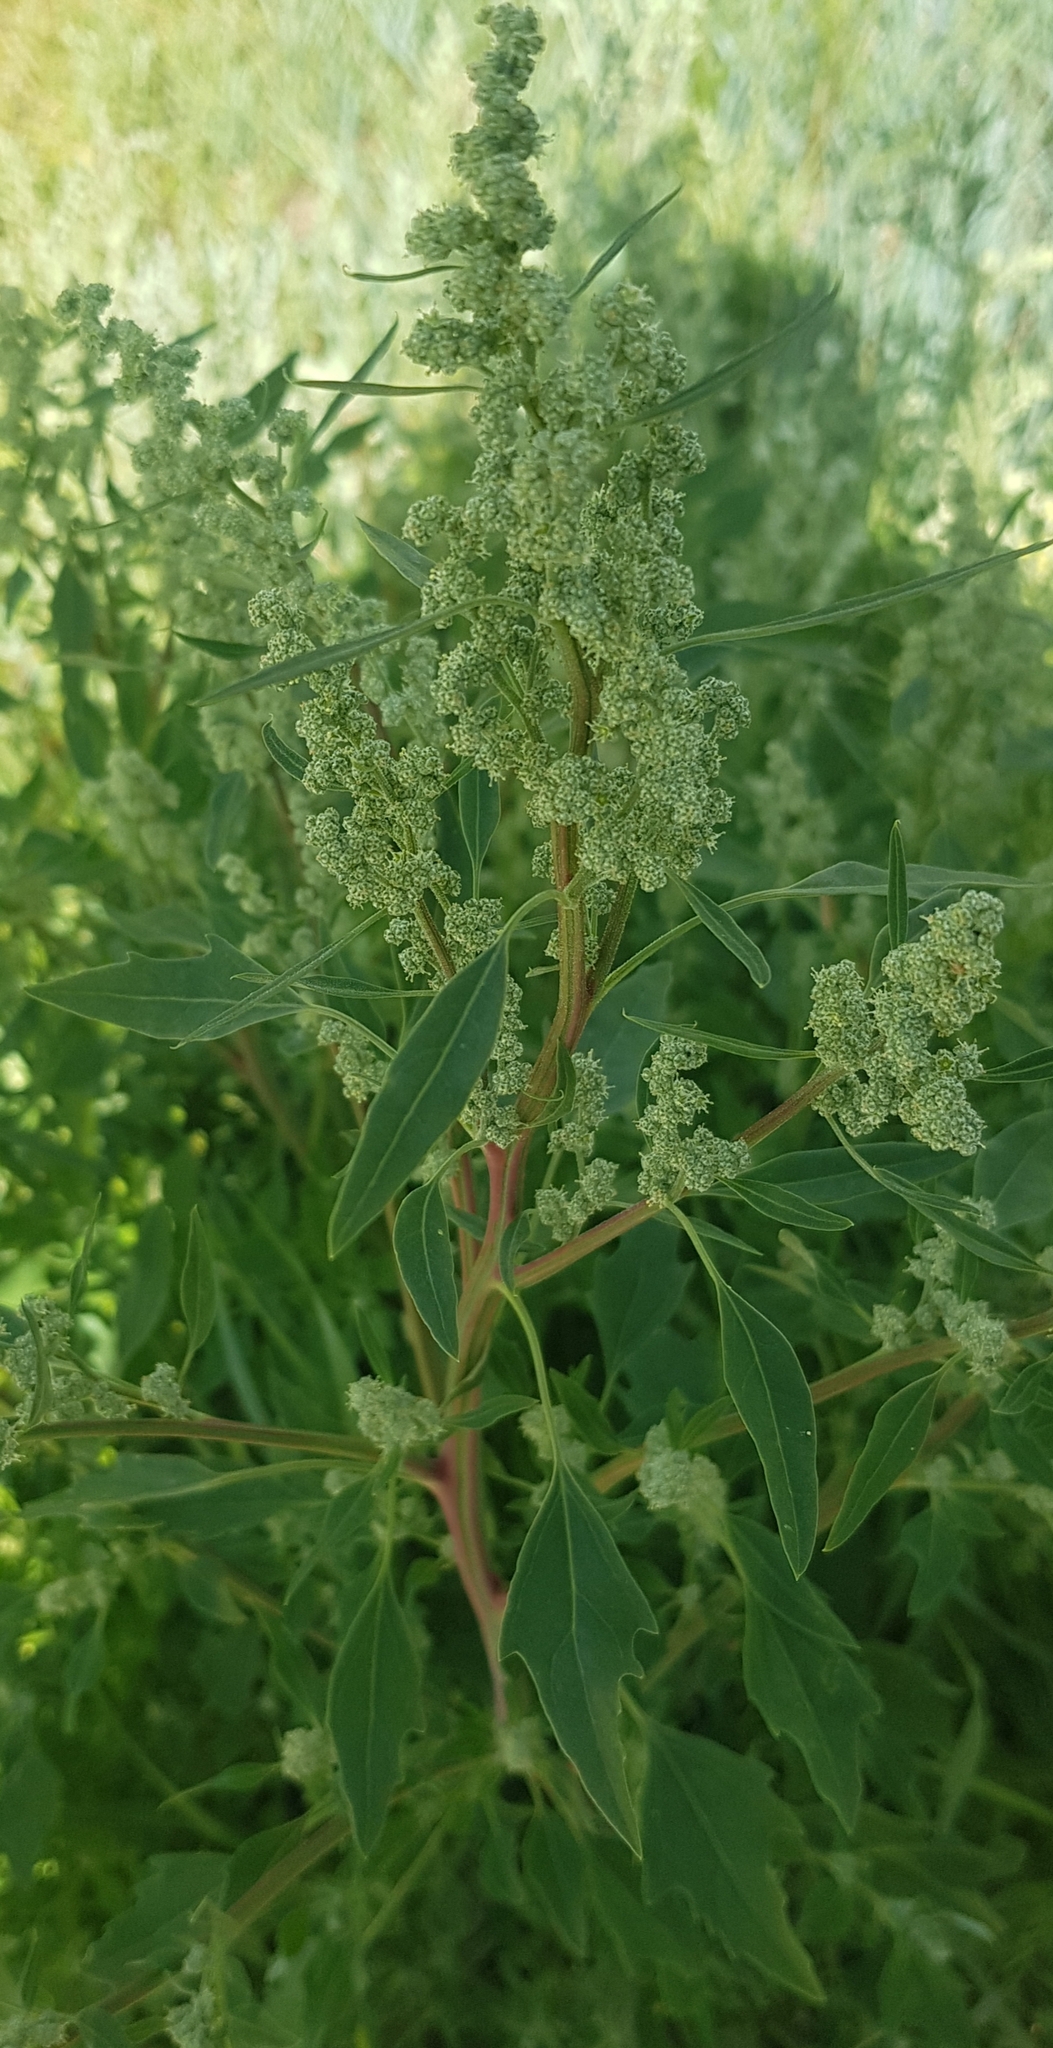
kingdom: Plantae
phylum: Tracheophyta
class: Magnoliopsida
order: Caryophyllales
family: Amaranthaceae
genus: Chenopodium
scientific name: Chenopodium album
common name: Fat-hen
